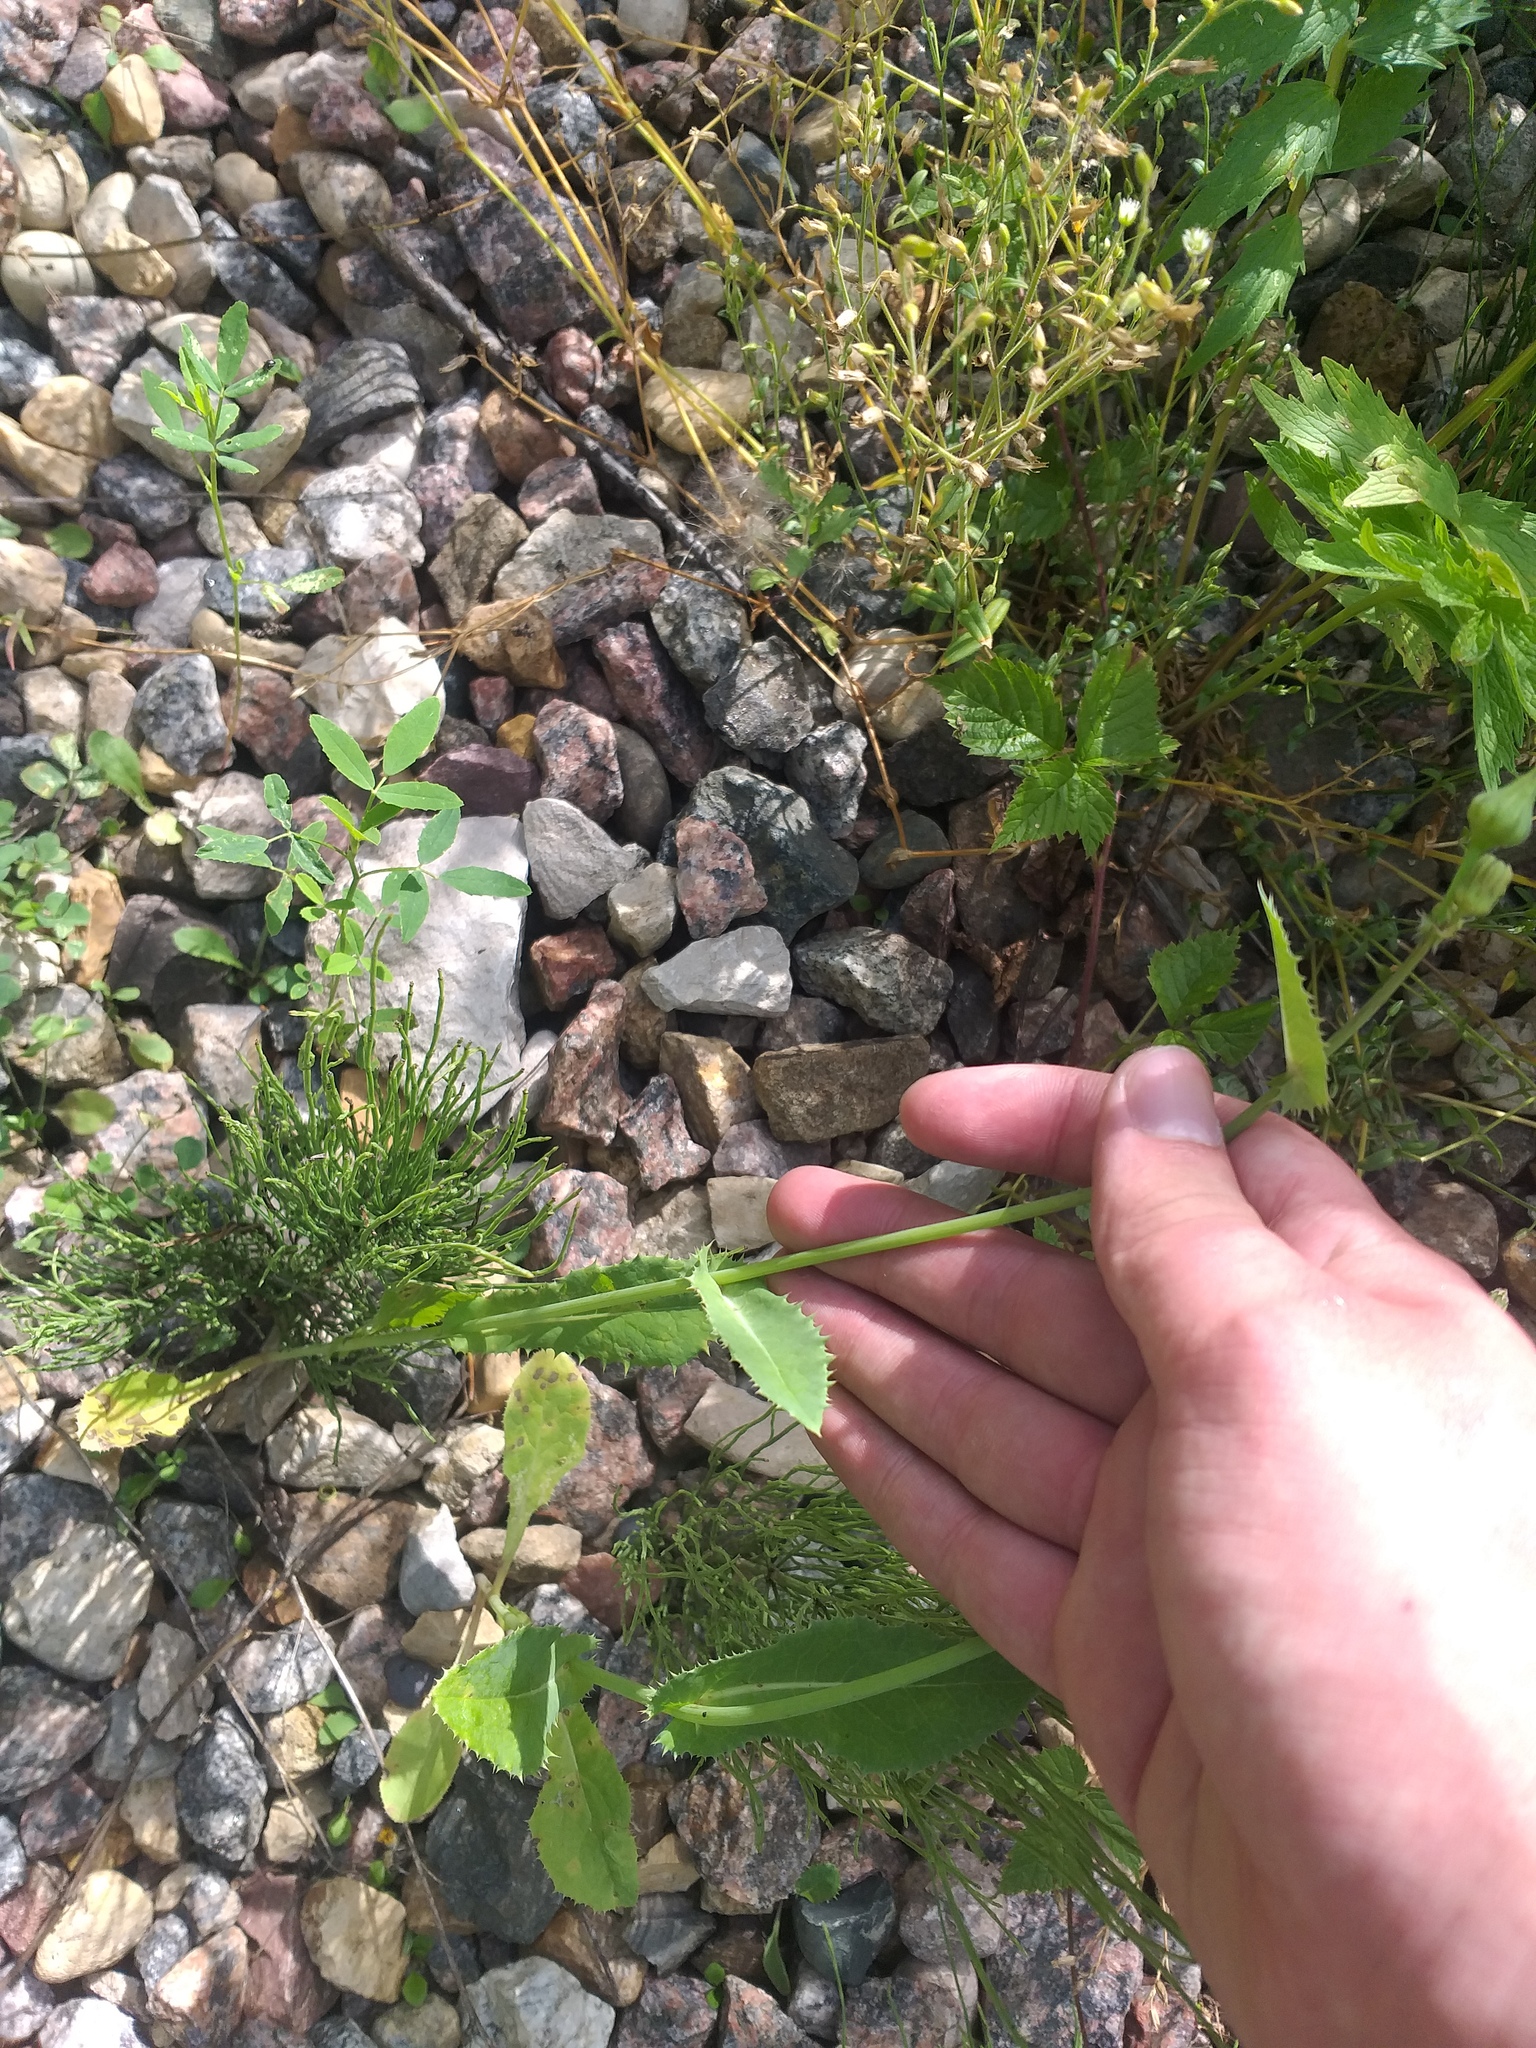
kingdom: Plantae
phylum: Tracheophyta
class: Magnoliopsida
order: Asterales
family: Asteraceae
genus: Sonchus
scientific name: Sonchus asper
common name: Prickly sow-thistle
